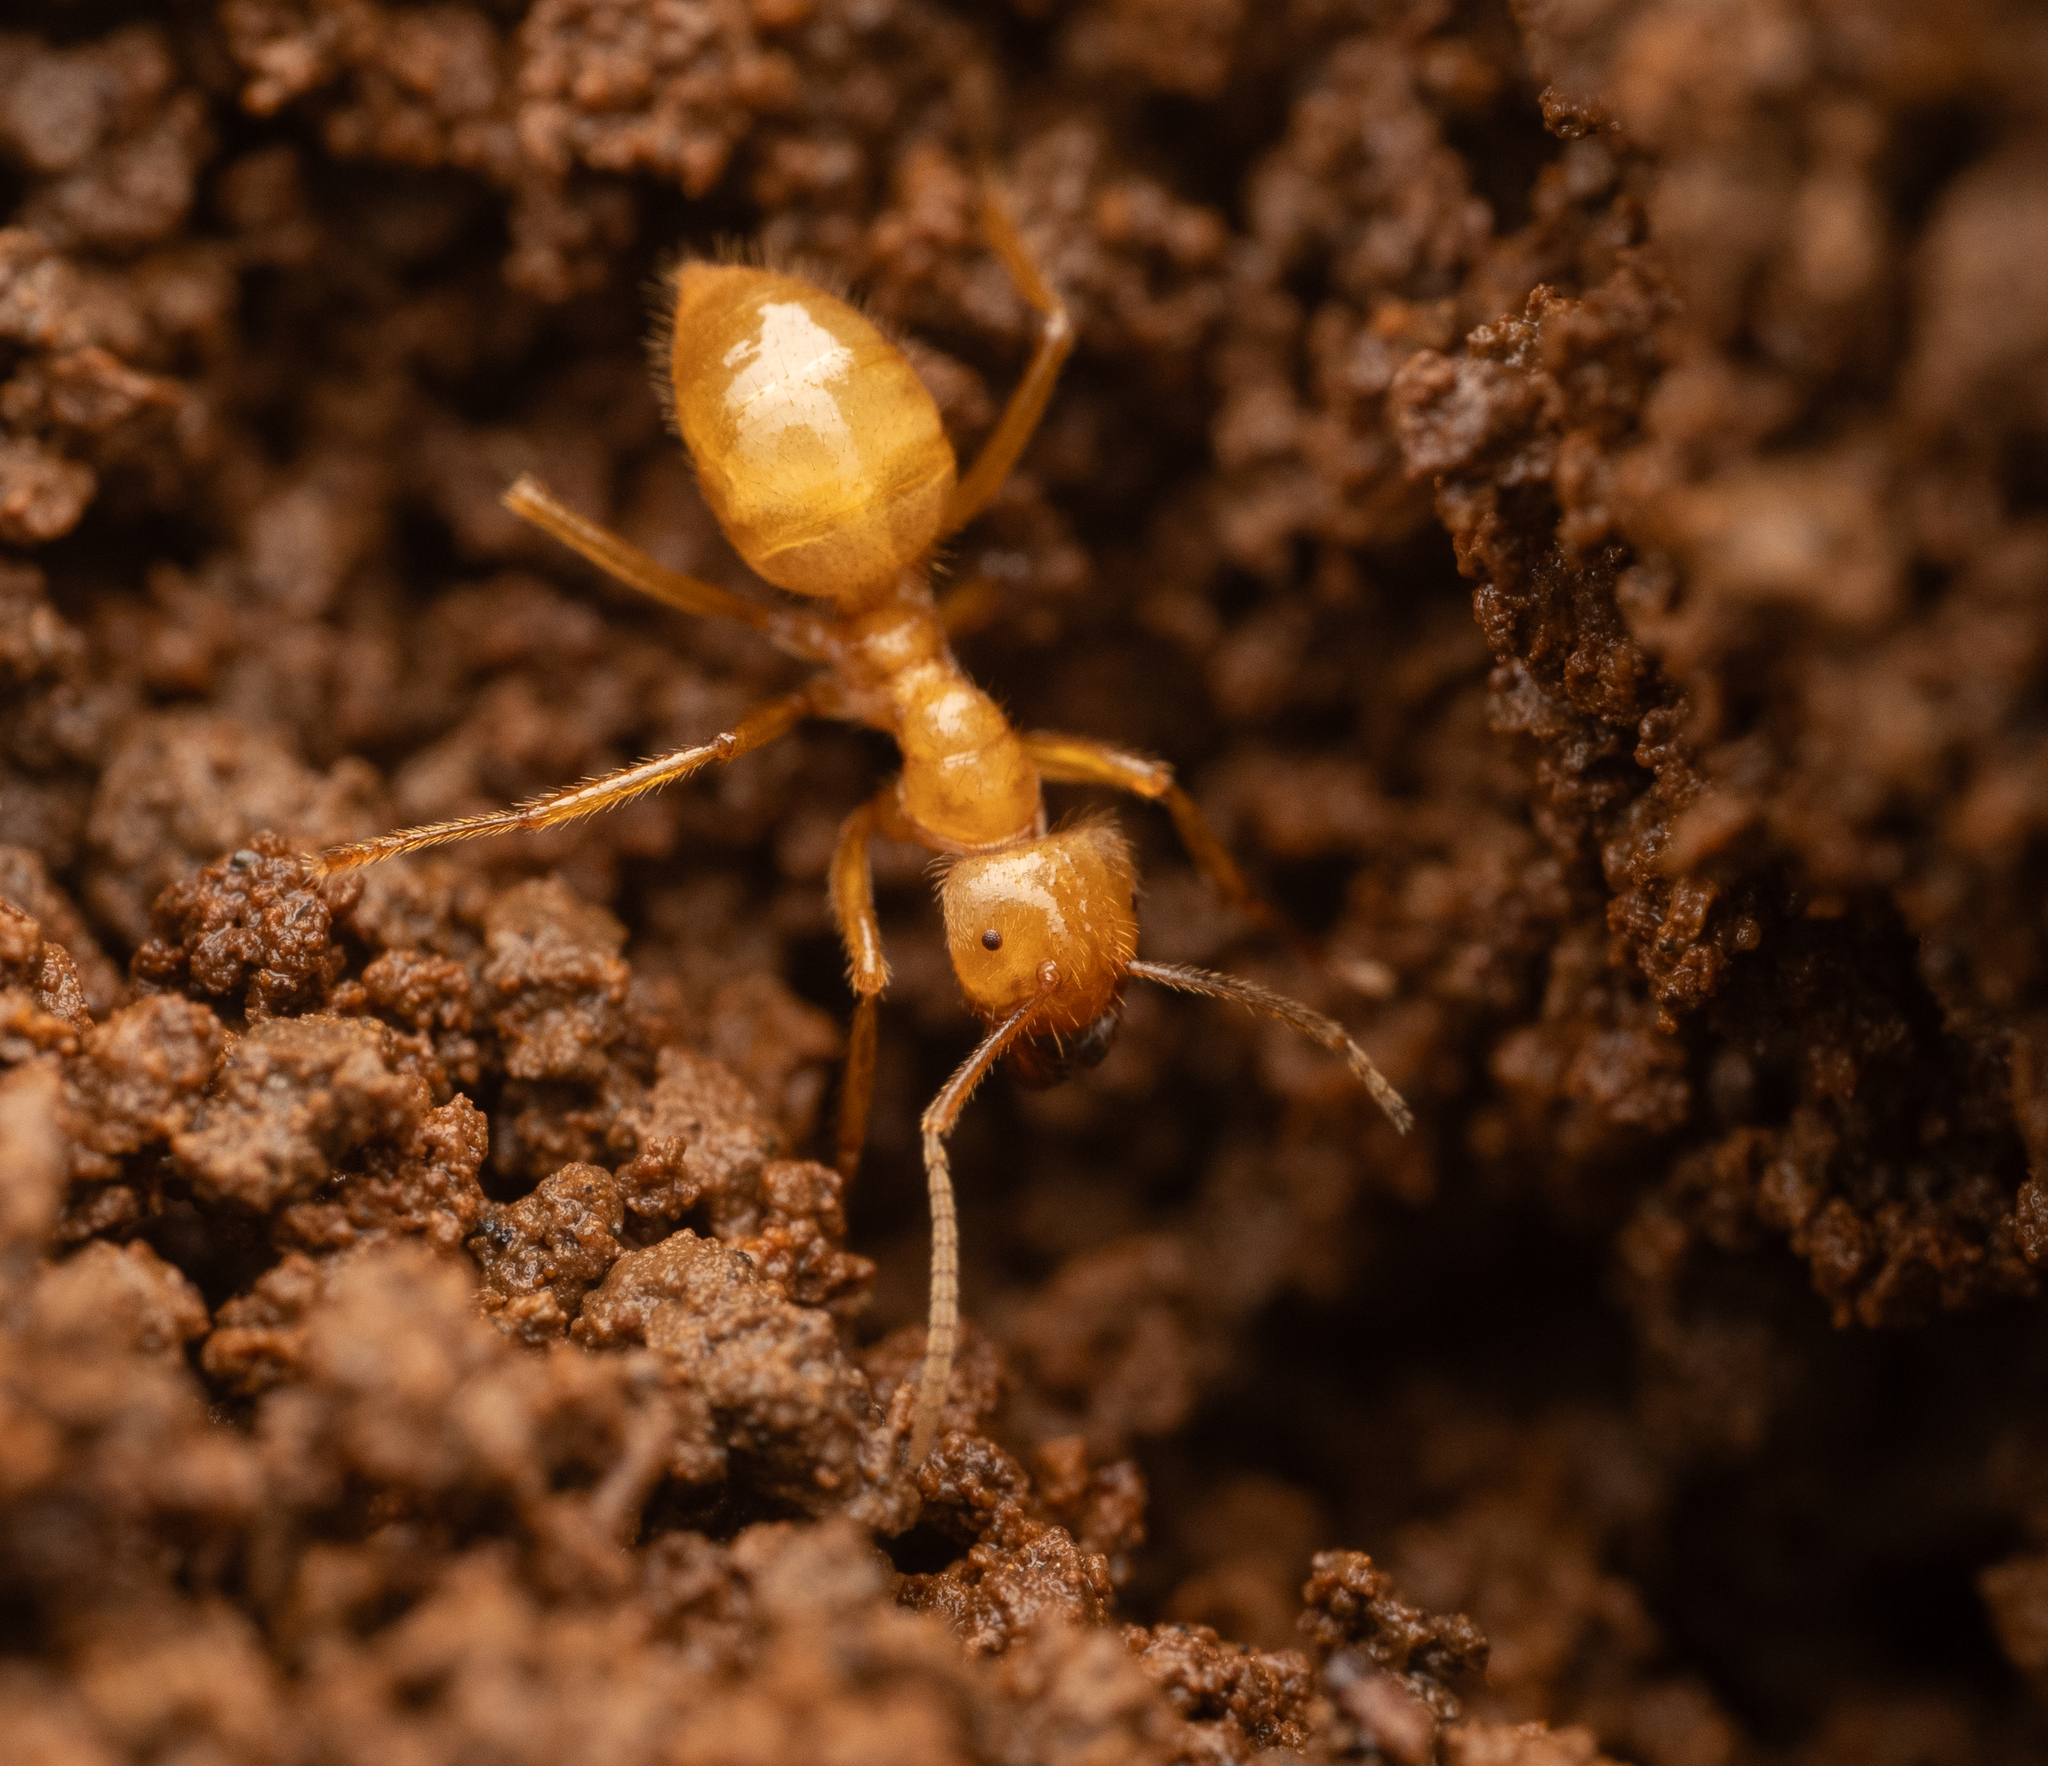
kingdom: Animalia
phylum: Arthropoda
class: Insecta
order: Hymenoptera
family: Formicidae
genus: Pseudolasius
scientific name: Pseudolasius karawajewi
